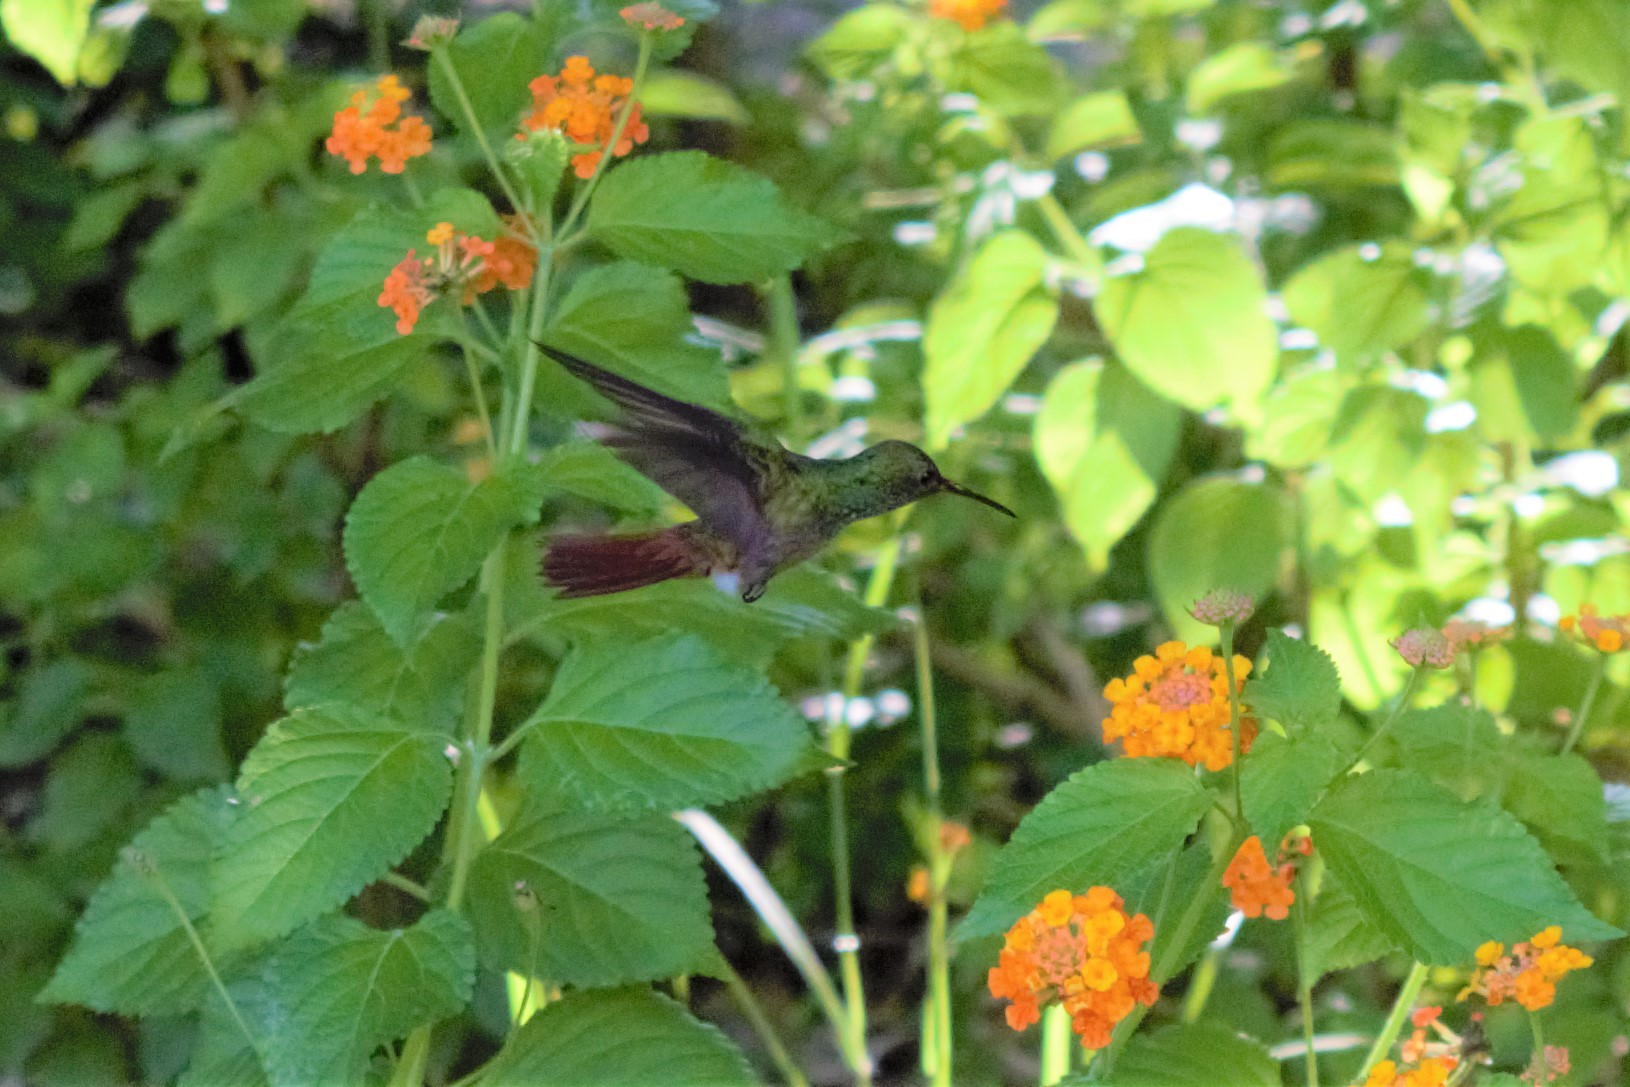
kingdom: Animalia
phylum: Chordata
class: Aves
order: Apodiformes
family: Trochilidae
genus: Amazilia
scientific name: Amazilia tzacatl
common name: Rufous-tailed hummingbird
